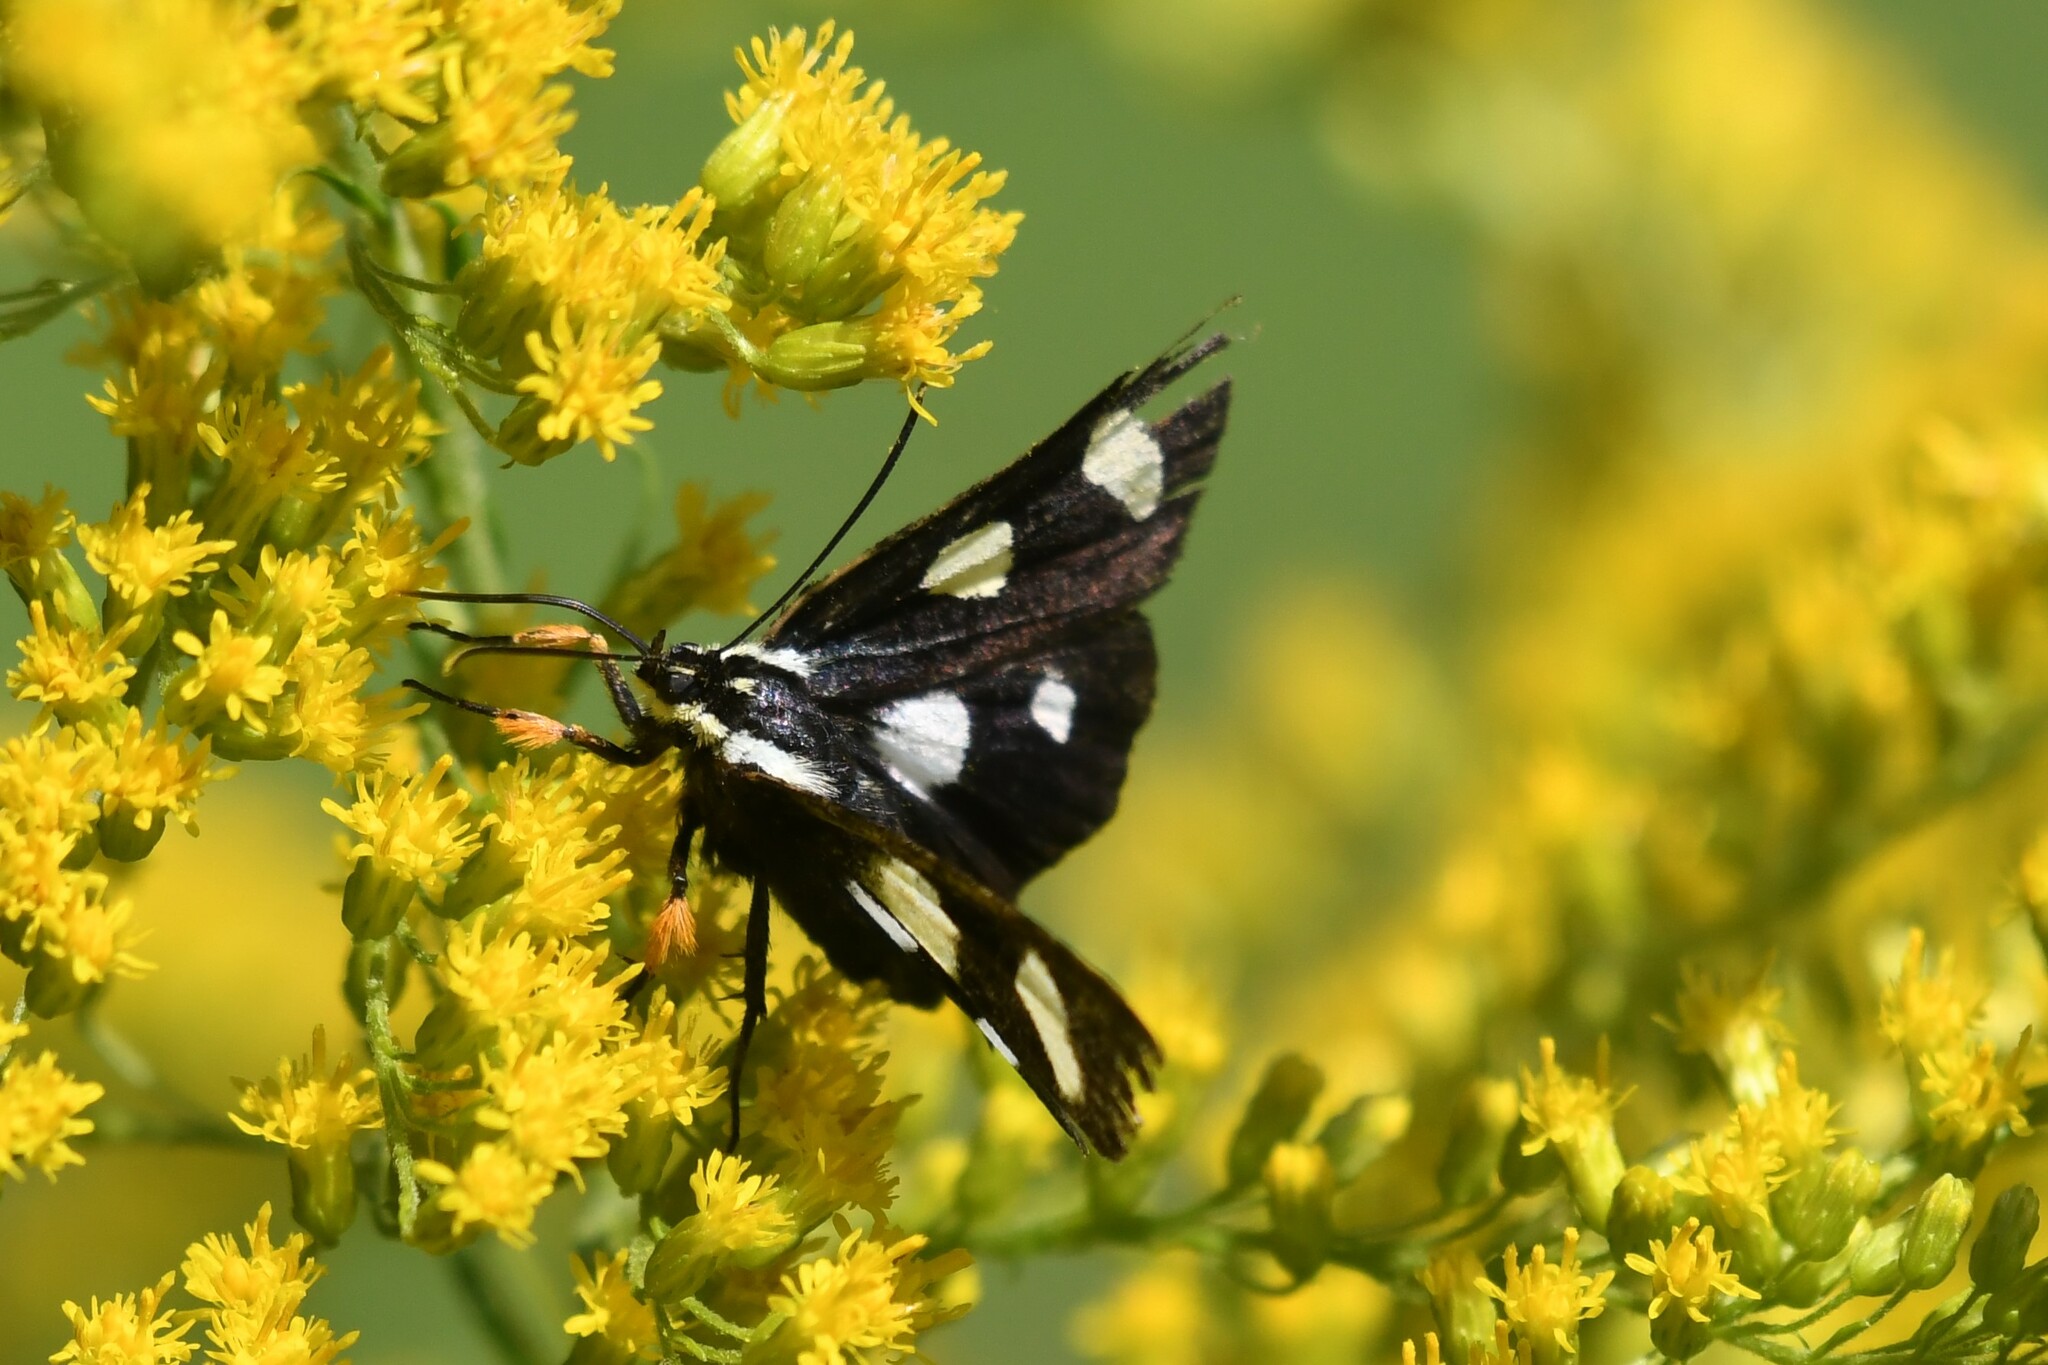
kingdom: Animalia
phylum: Arthropoda
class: Insecta
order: Lepidoptera
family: Noctuidae
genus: Alypia
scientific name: Alypia octomaculata
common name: Eight-spotted forester
